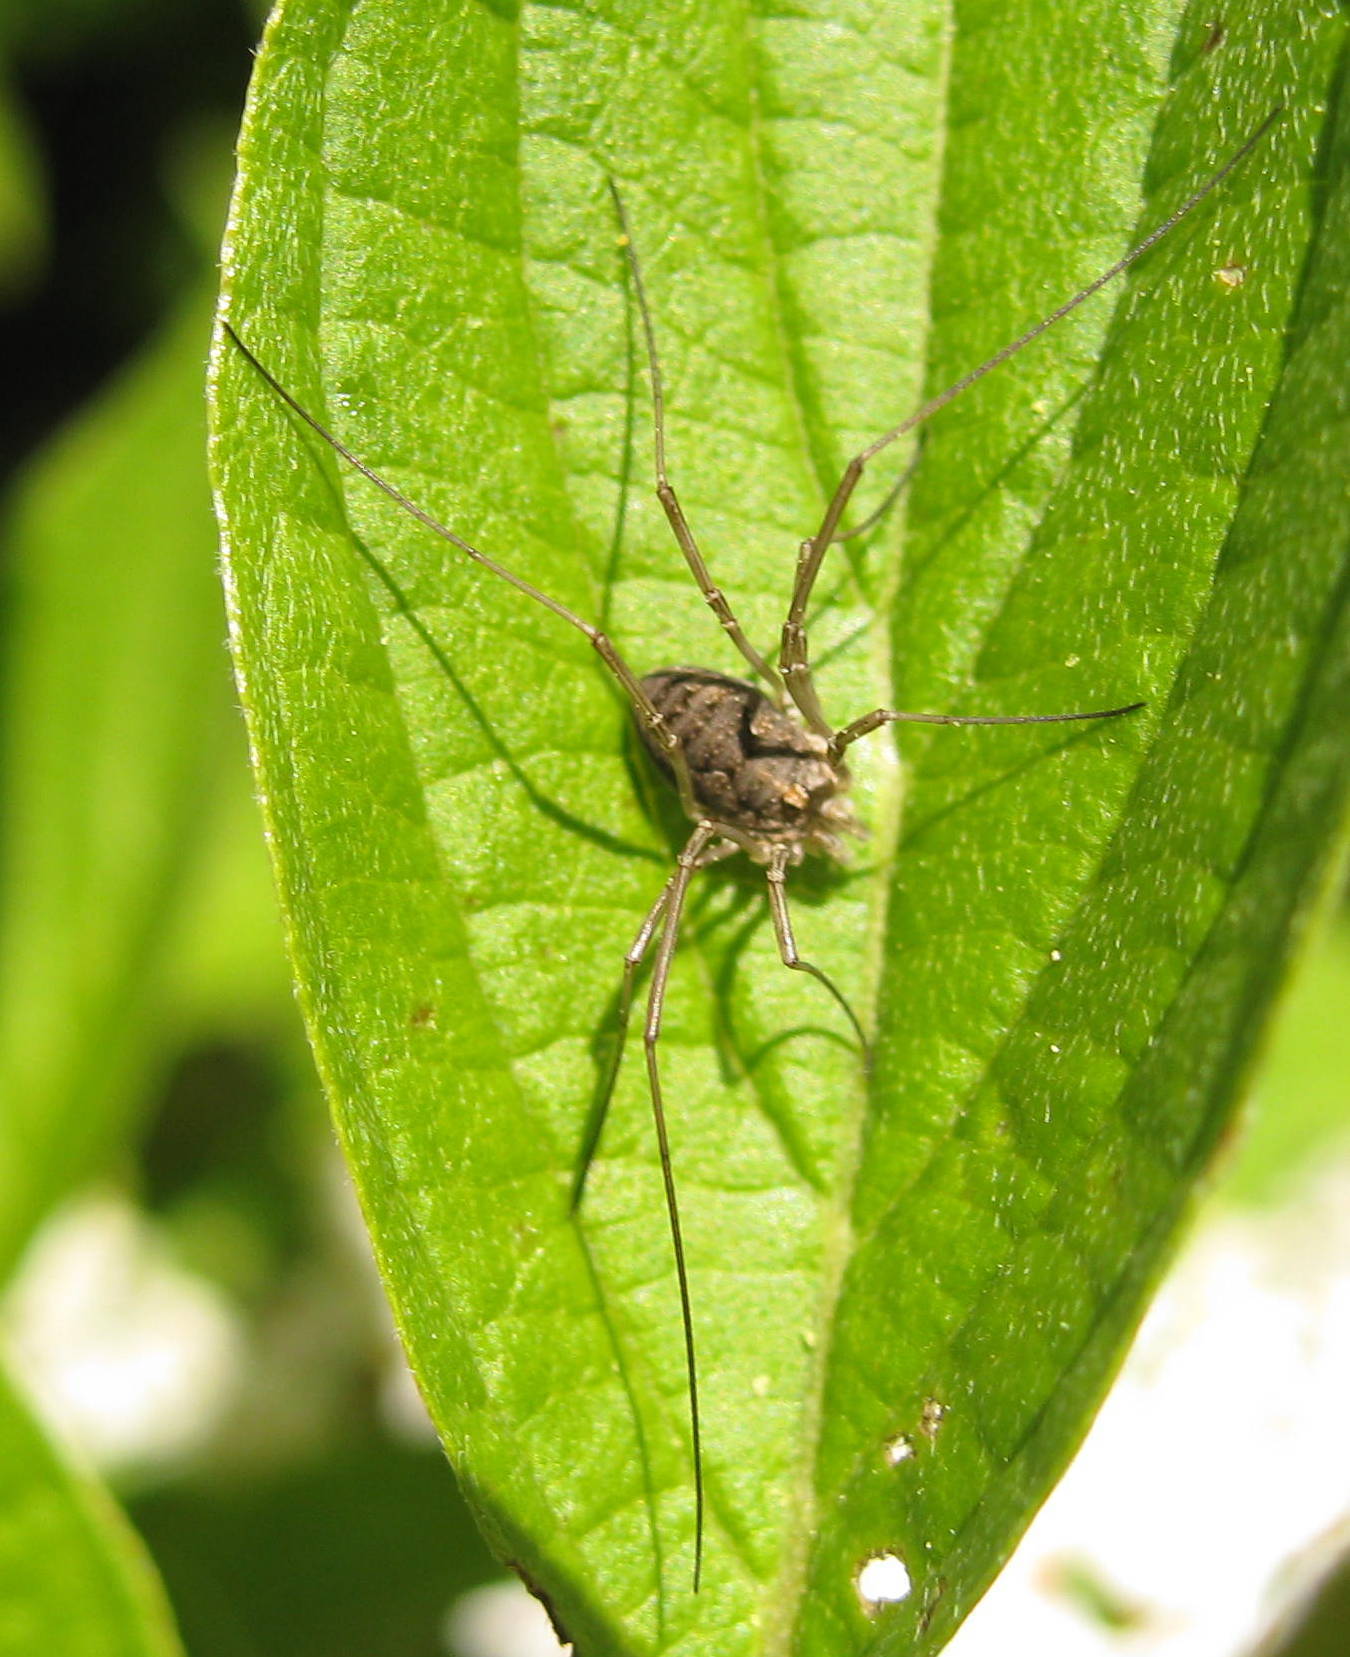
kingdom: Animalia
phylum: Arthropoda
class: Arachnida
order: Opiliones
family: Phalangiidae
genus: Phalangium
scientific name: Phalangium opilio
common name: Daddy longleg
